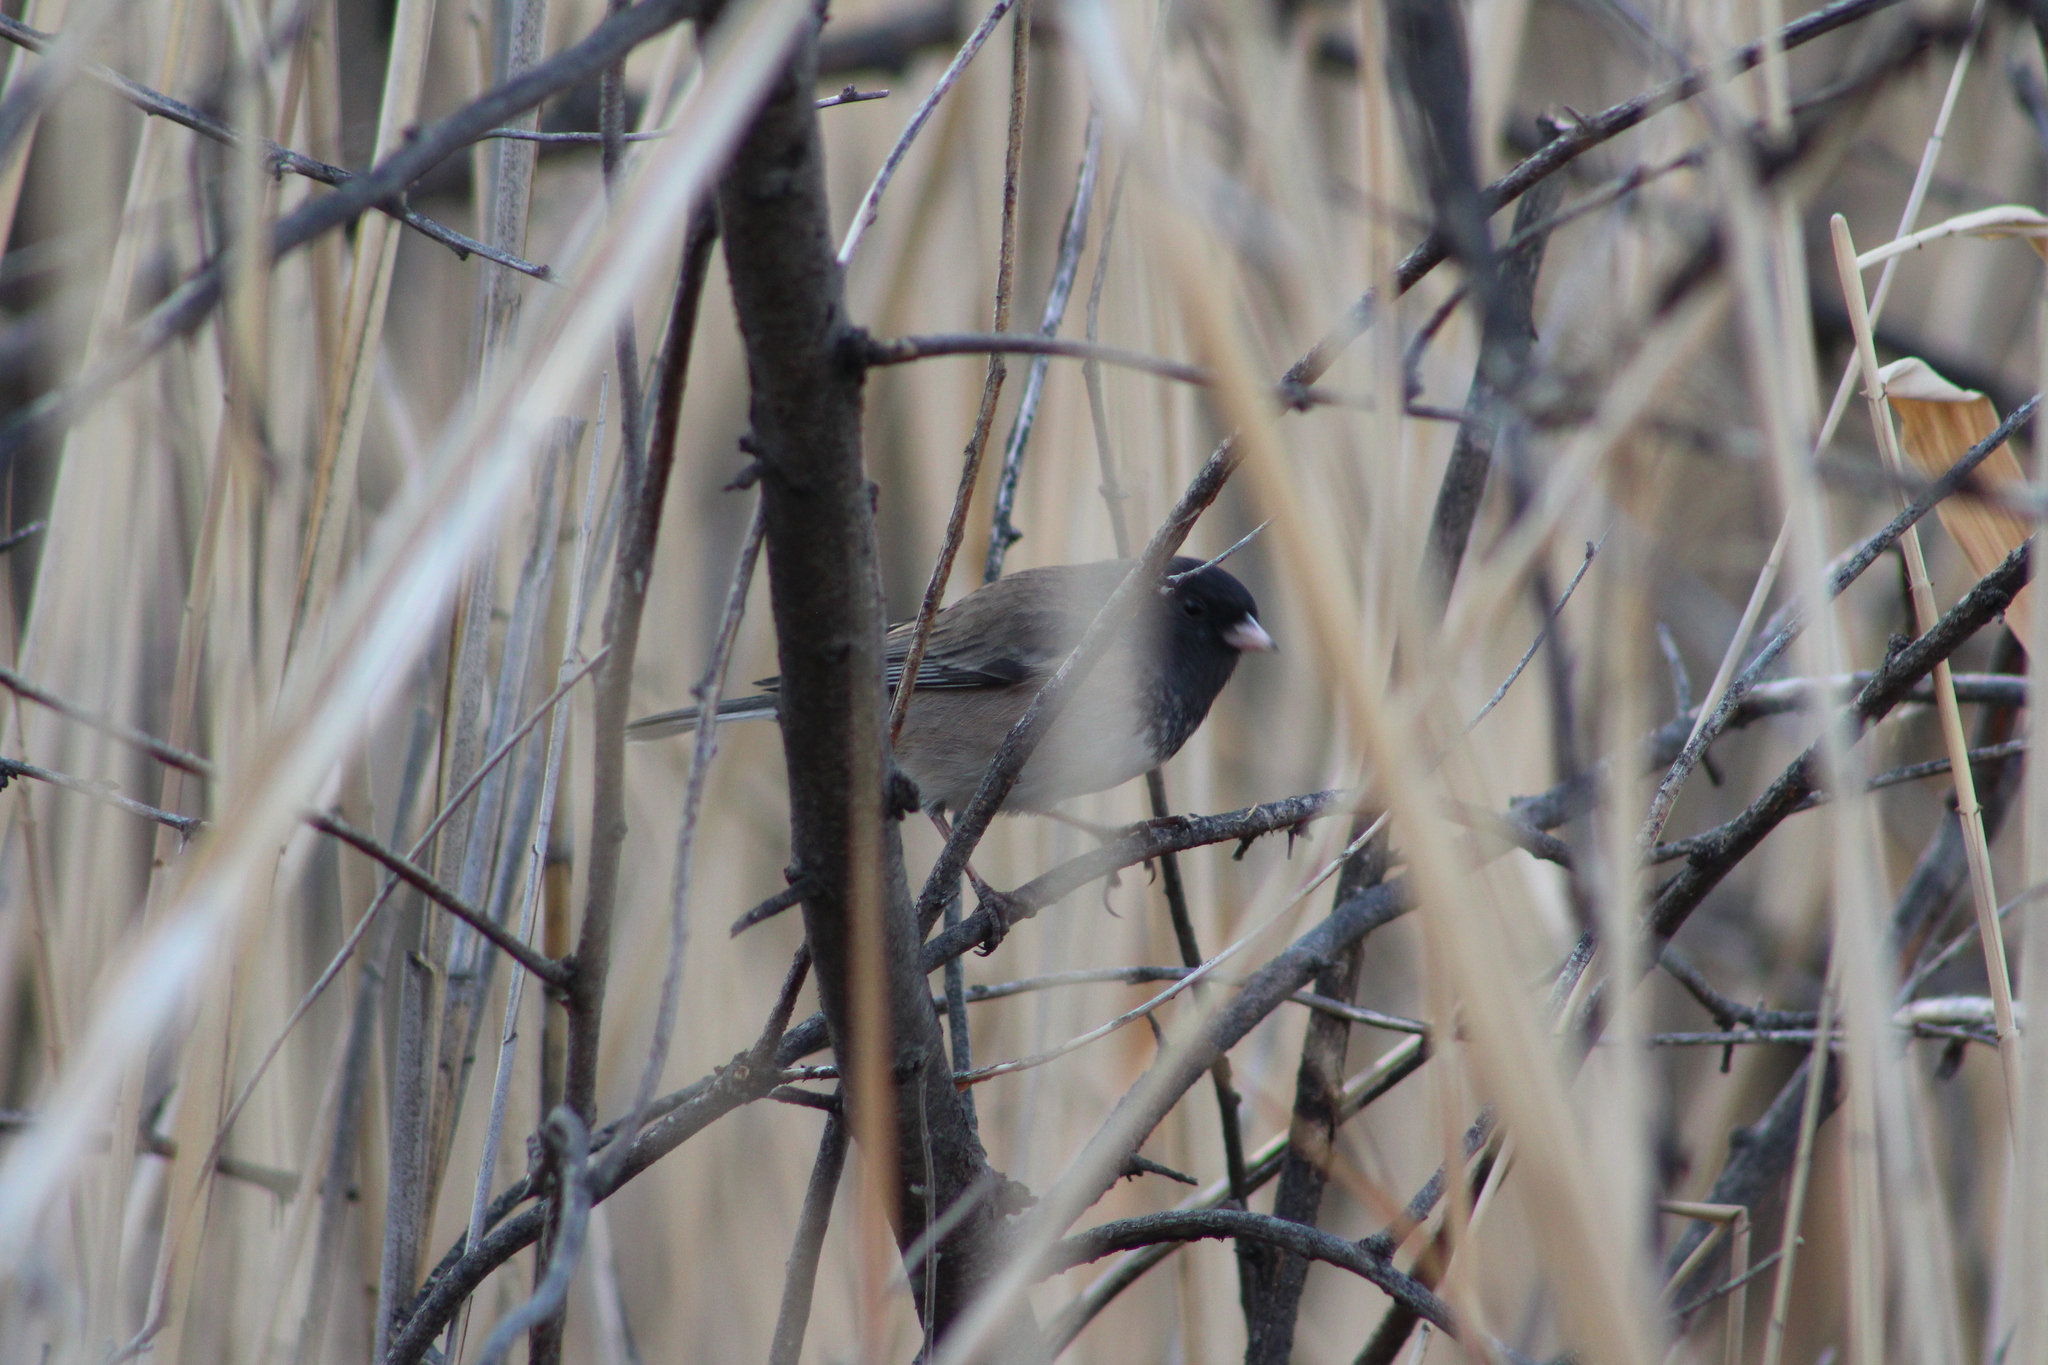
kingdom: Animalia
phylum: Chordata
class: Aves
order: Passeriformes
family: Passerellidae
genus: Junco
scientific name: Junco hyemalis
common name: Dark-eyed junco
